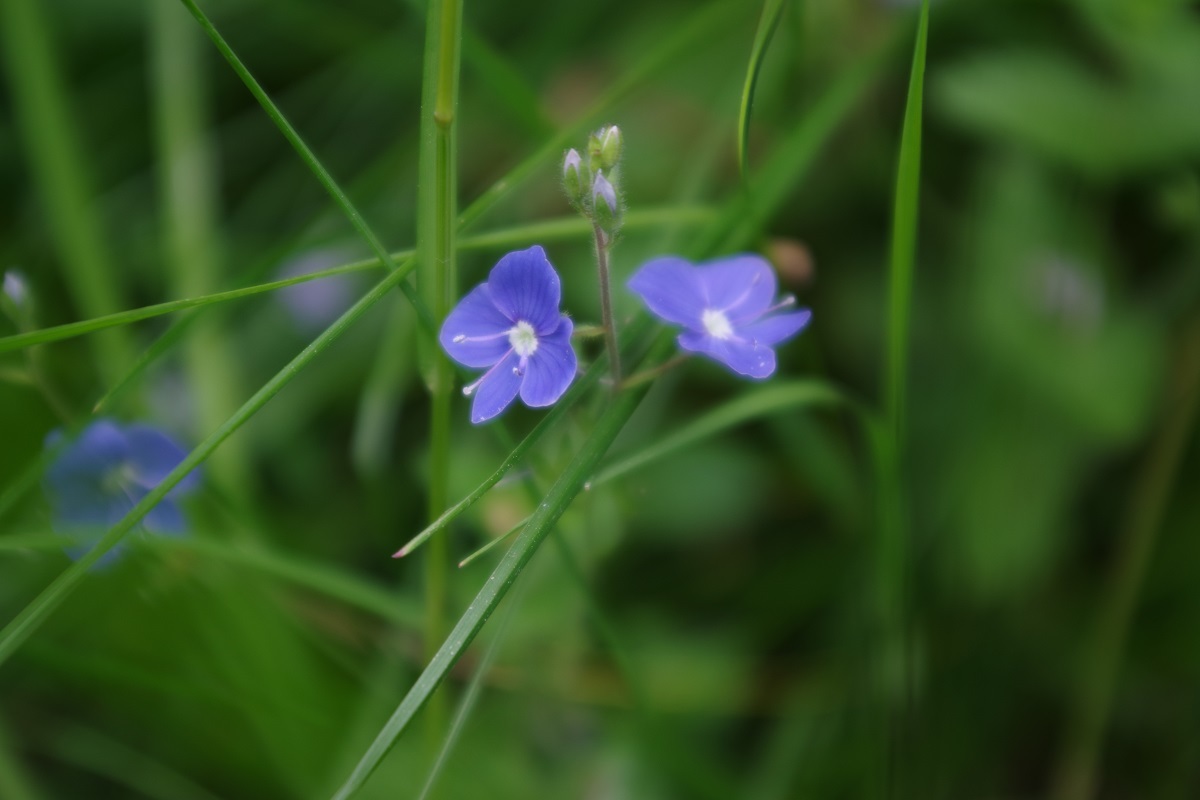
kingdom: Plantae
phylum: Tracheophyta
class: Magnoliopsida
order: Lamiales
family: Plantaginaceae
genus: Veronica
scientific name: Veronica chamaedrys
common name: Germander speedwell
